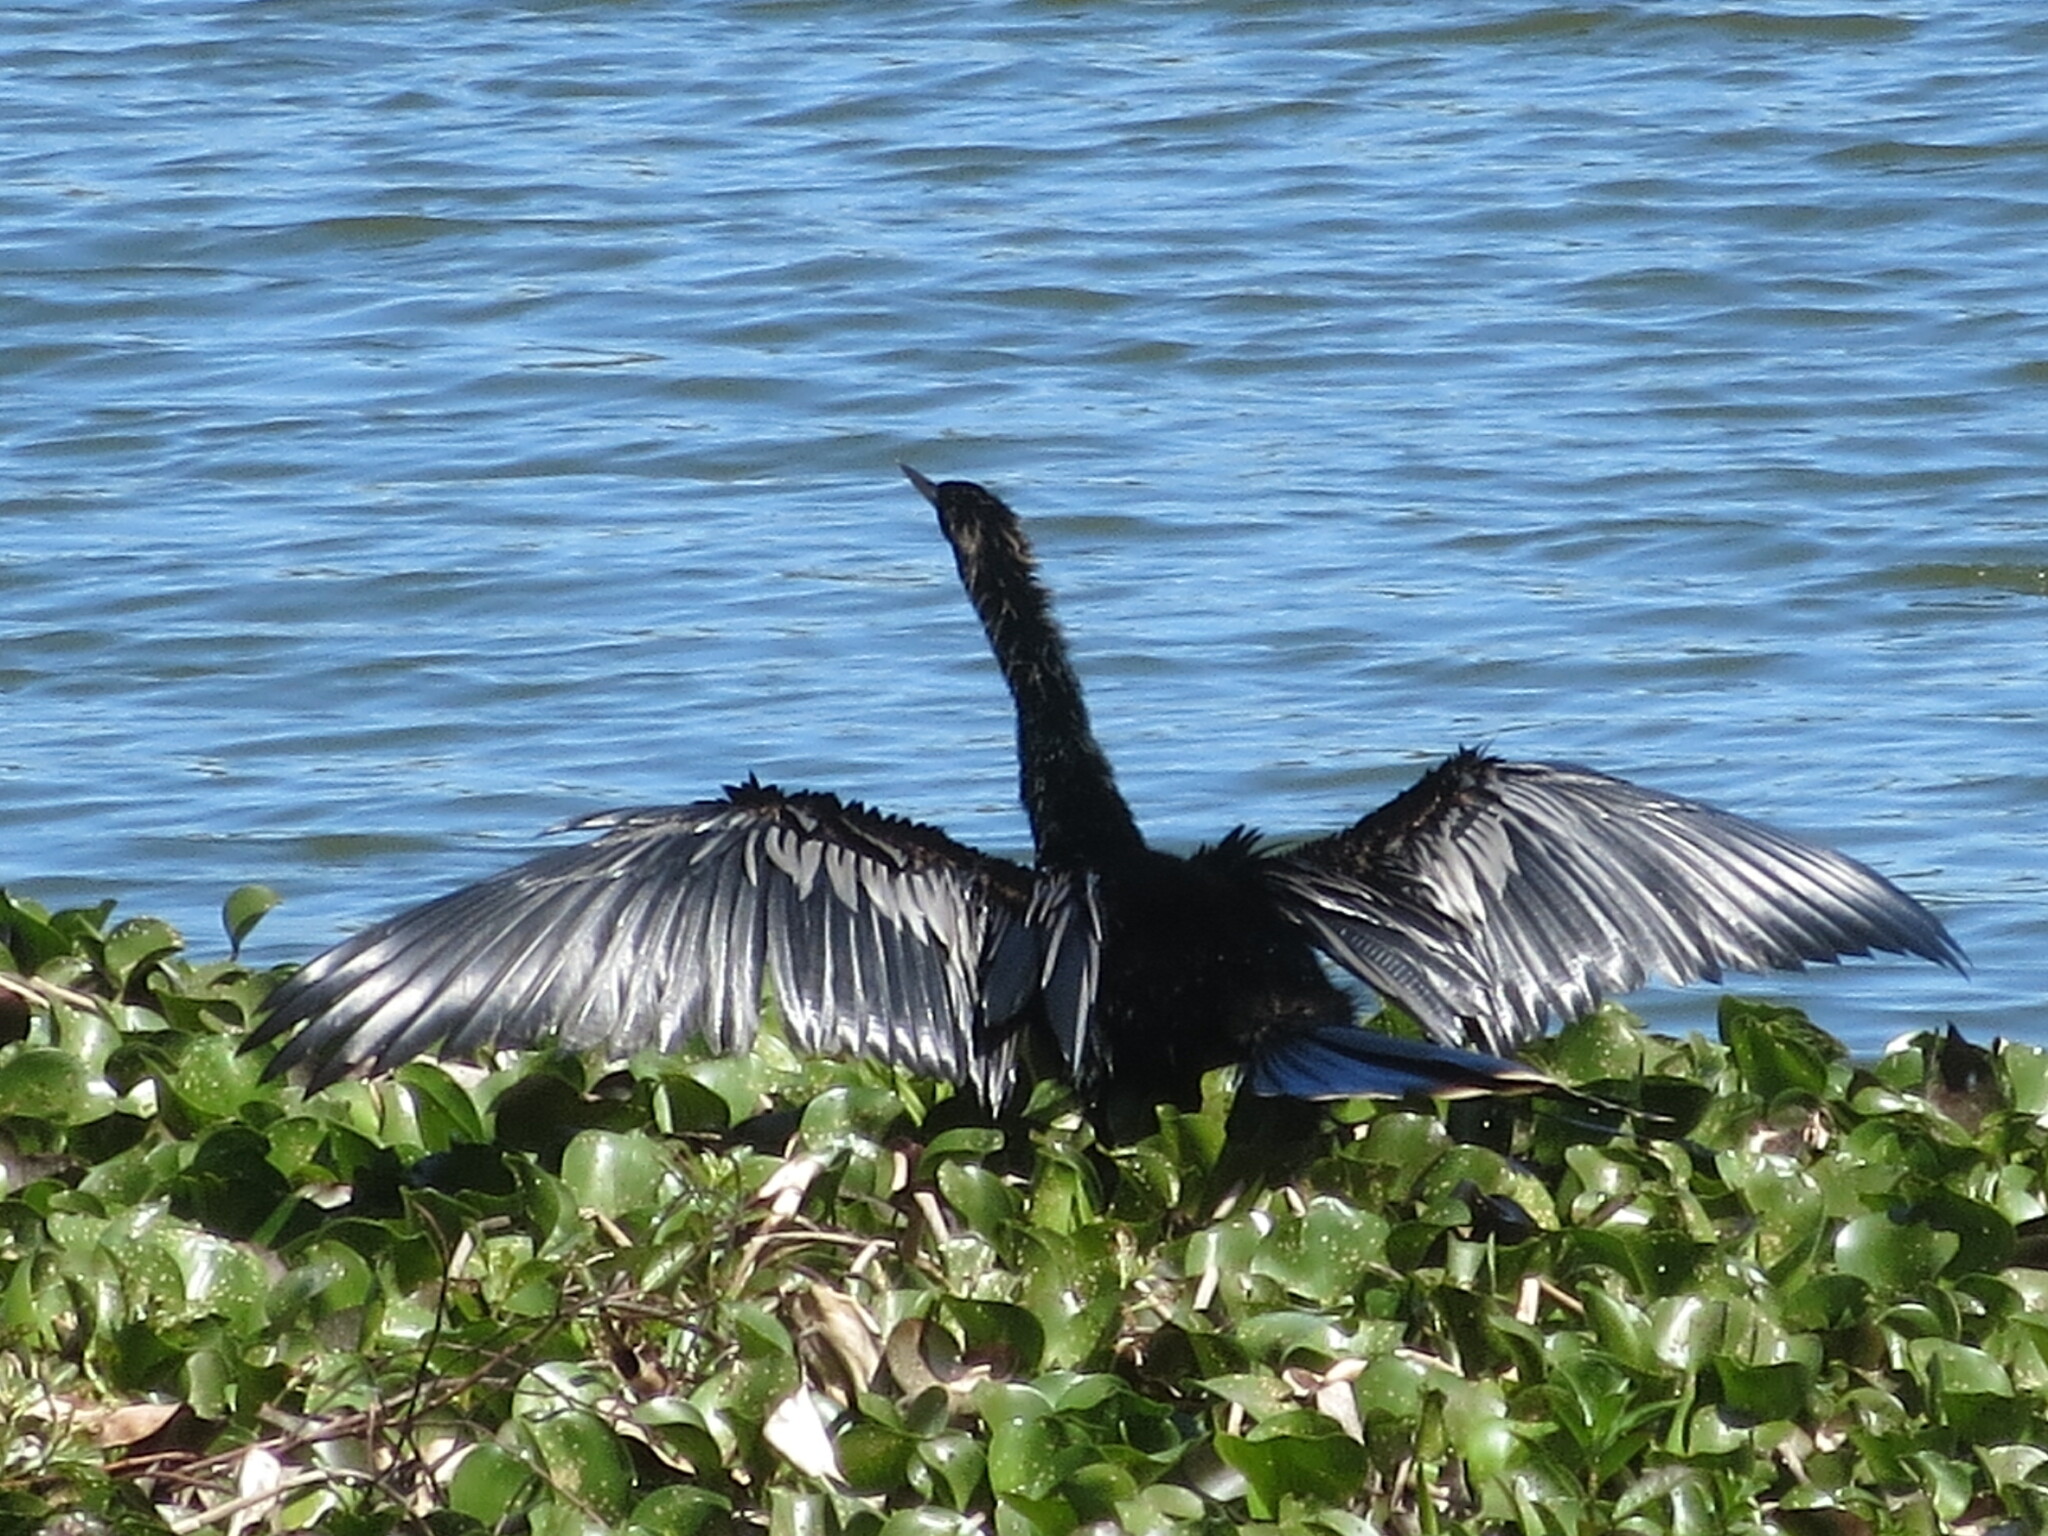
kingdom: Animalia
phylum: Chordata
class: Aves
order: Suliformes
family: Anhingidae
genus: Anhinga
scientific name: Anhinga anhinga
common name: Anhinga
